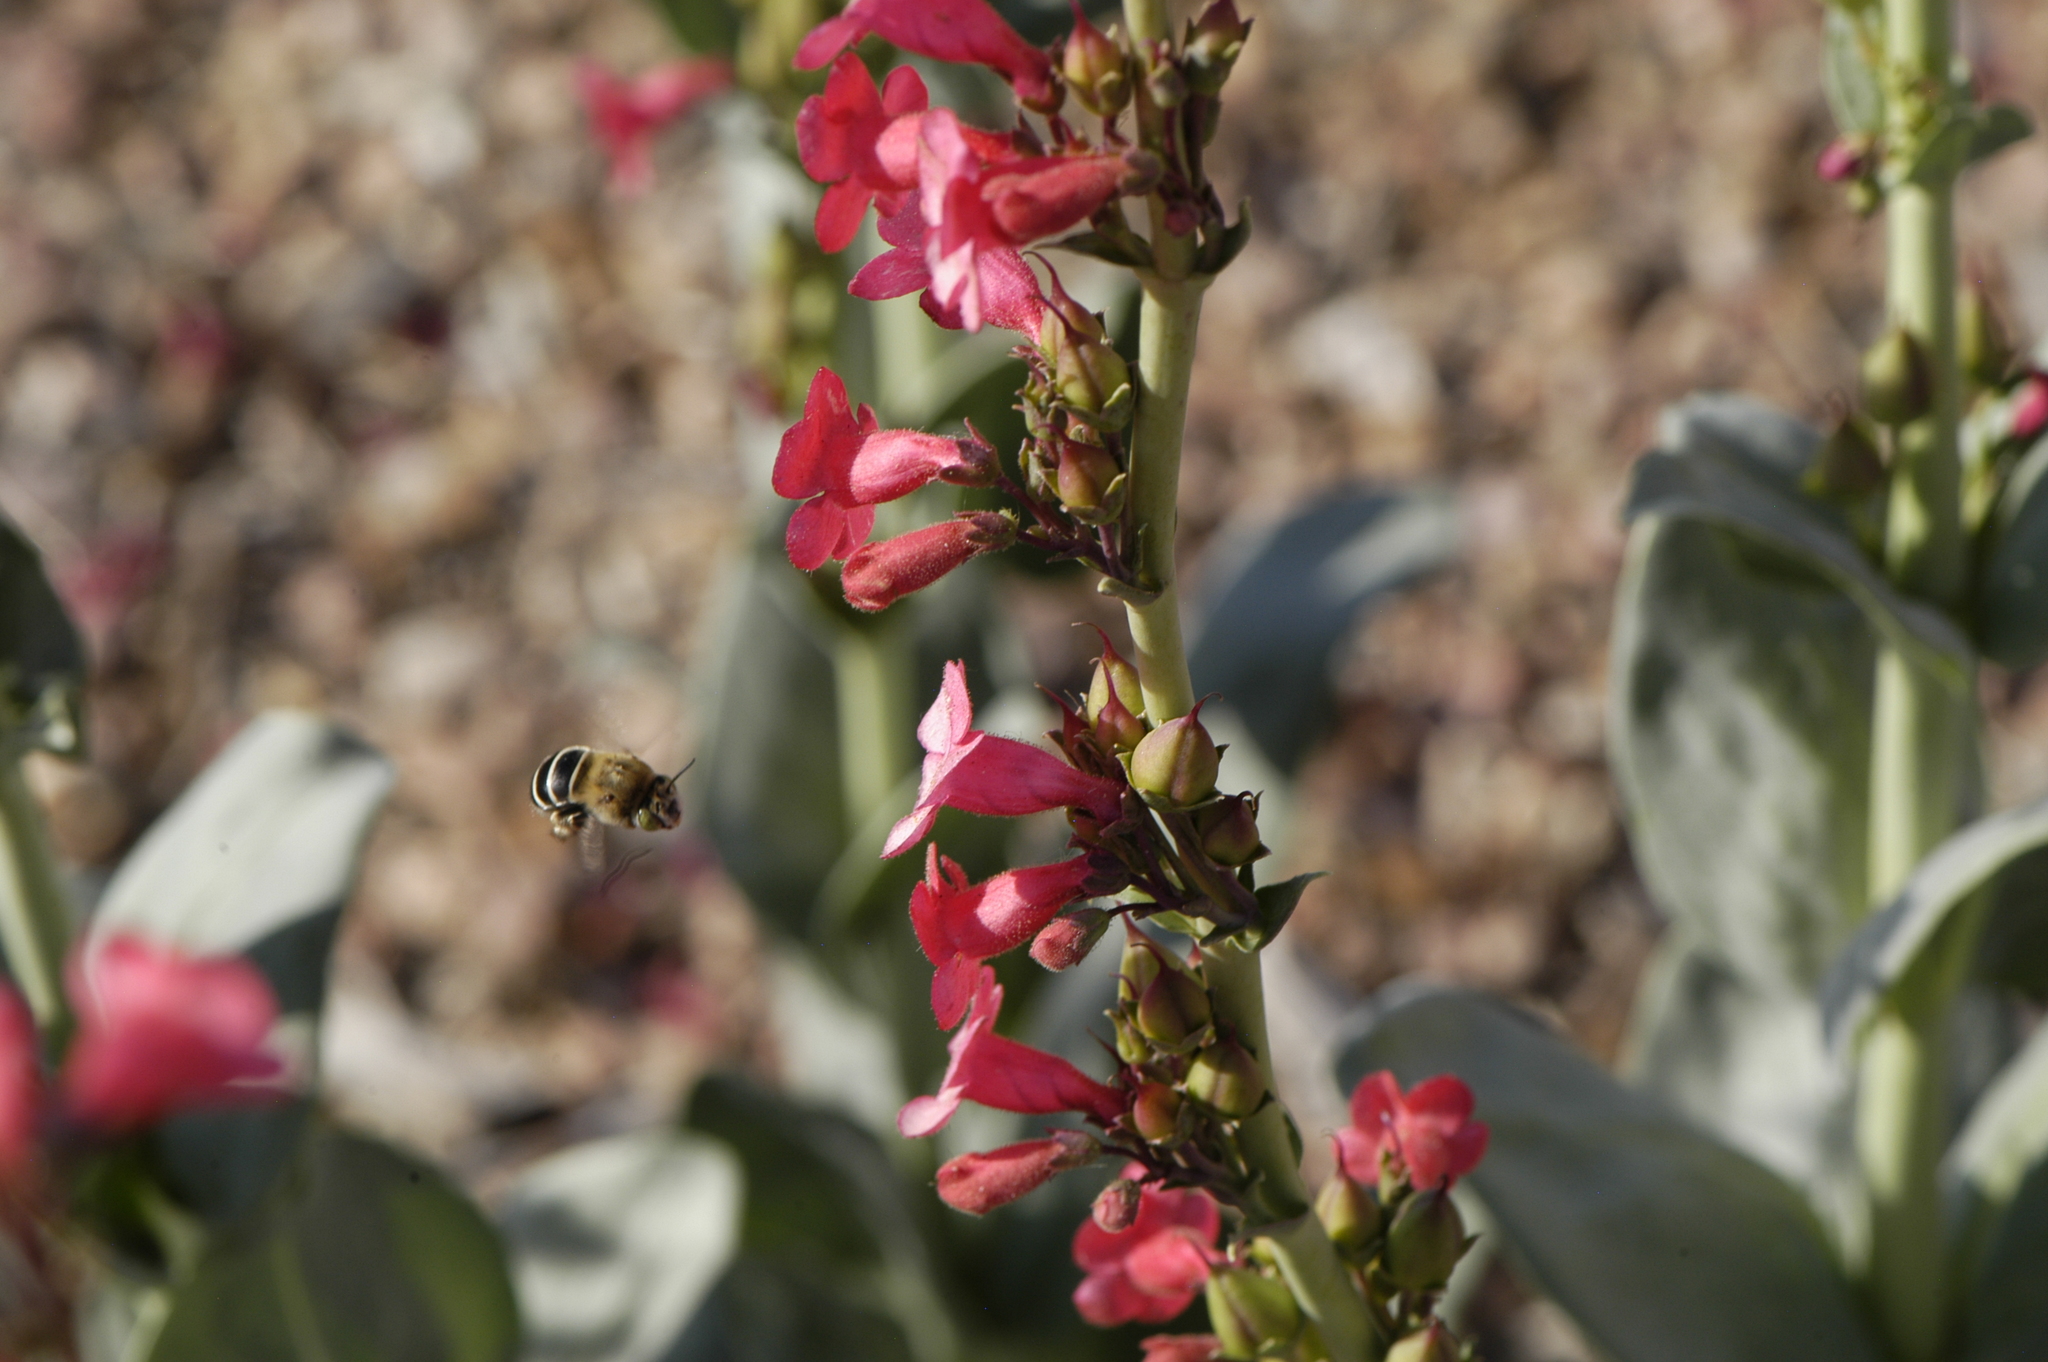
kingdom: Animalia
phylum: Arthropoda
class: Insecta
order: Hymenoptera
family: Apidae
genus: Anthophora
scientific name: Anthophora californica
